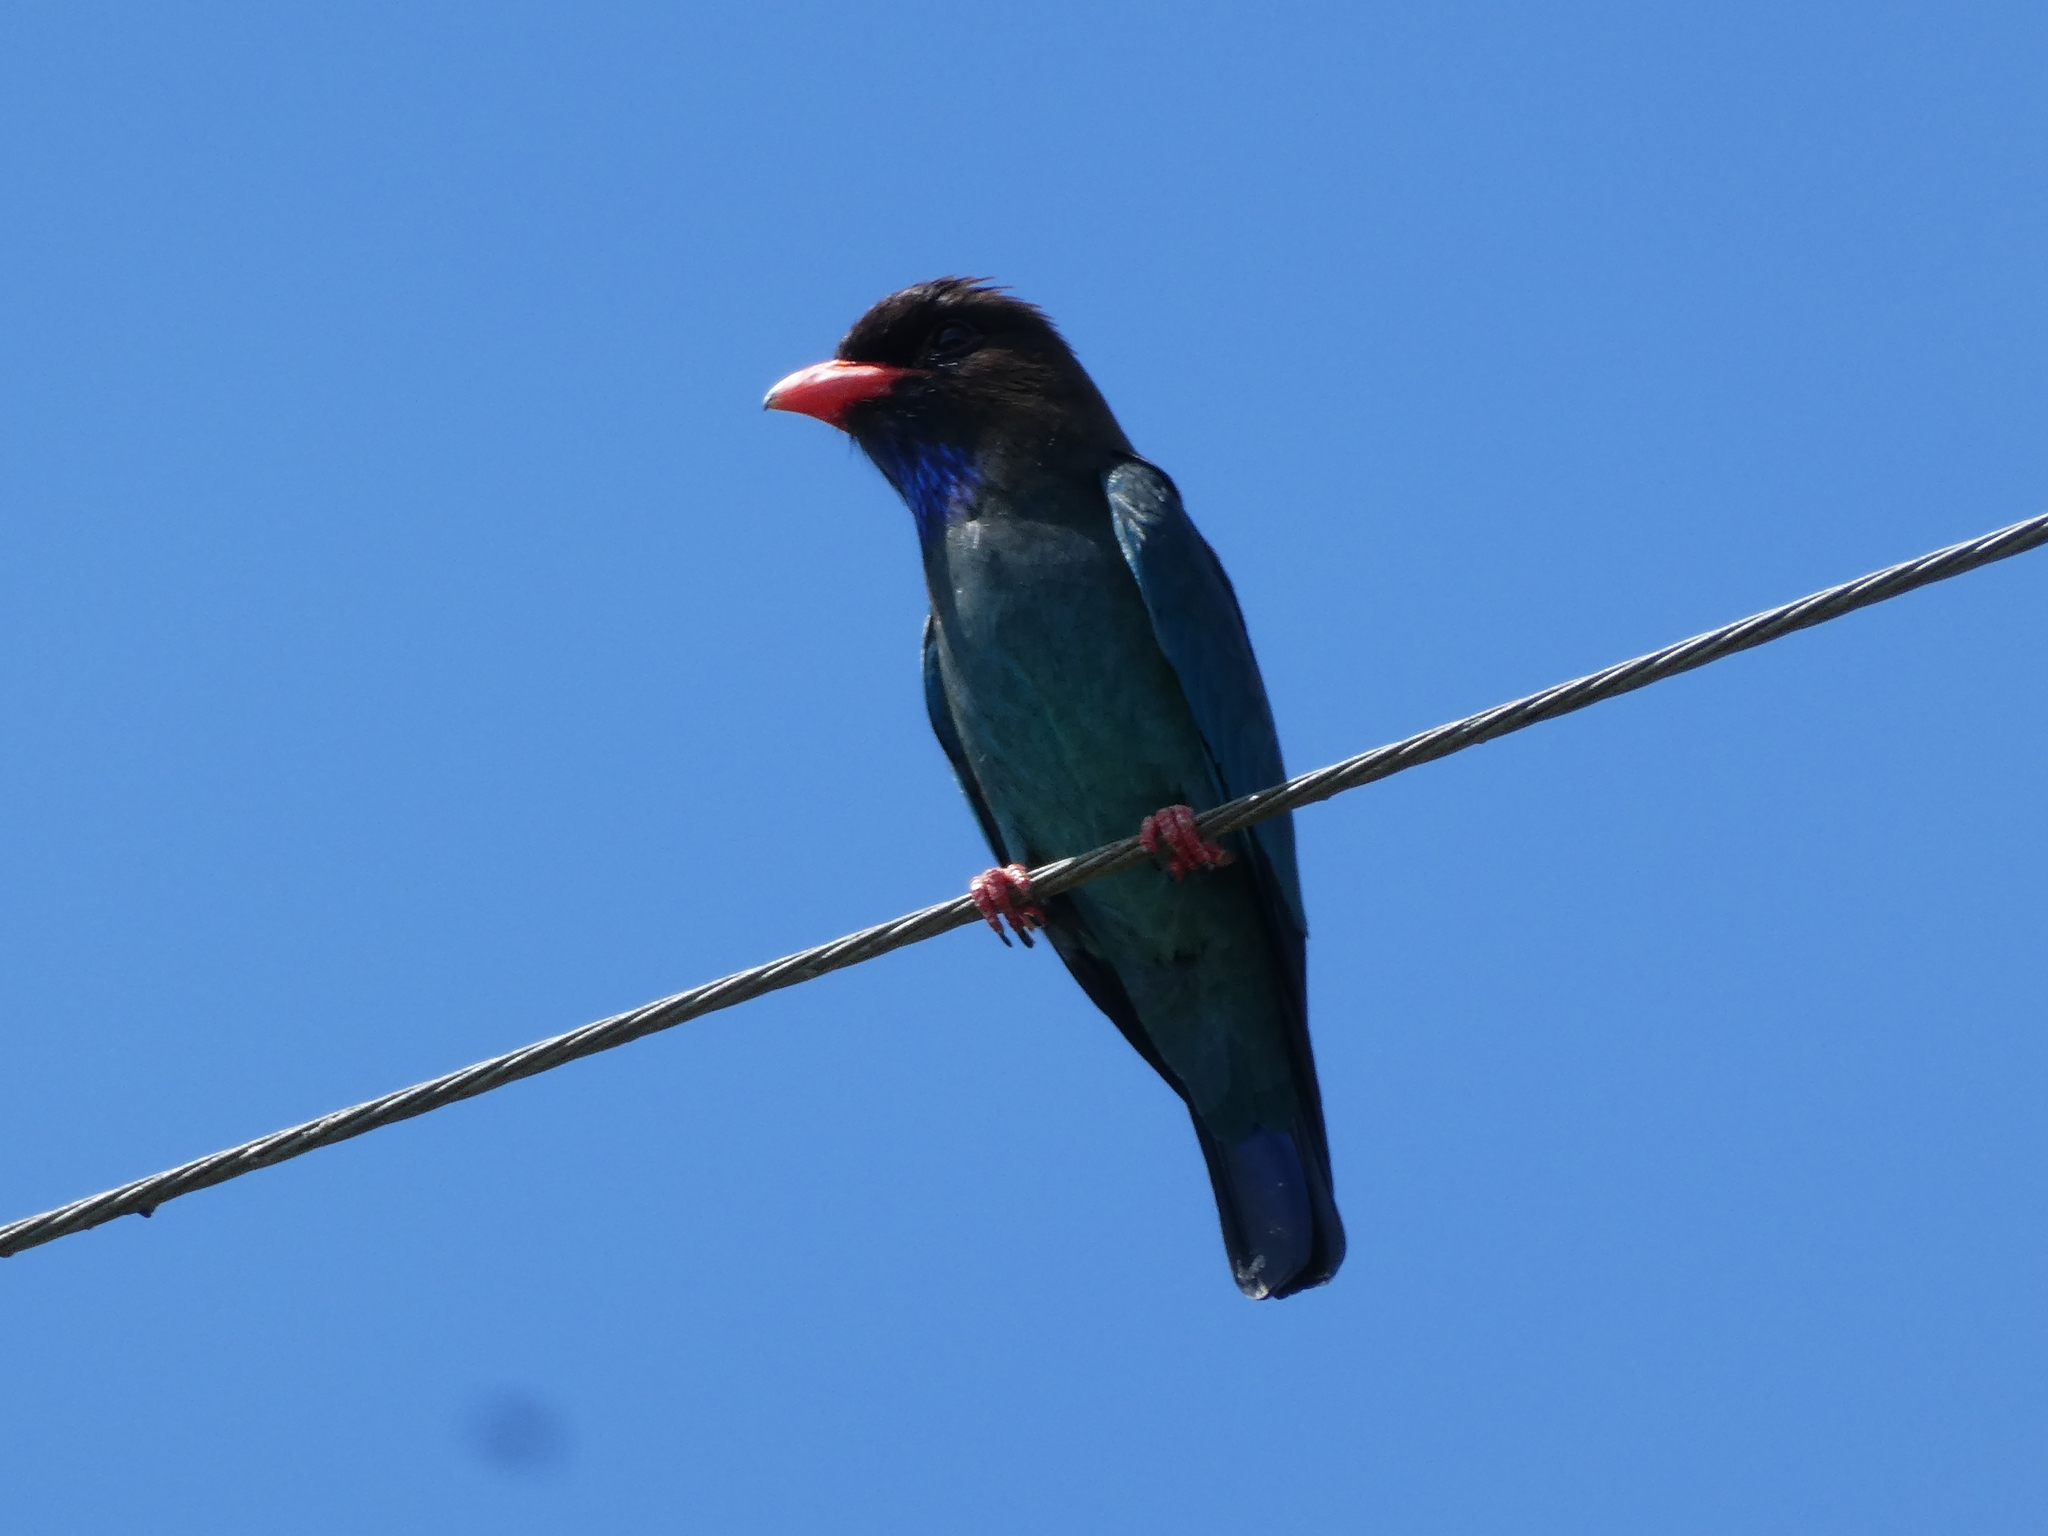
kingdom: Animalia
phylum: Chordata
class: Aves
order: Coraciiformes
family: Coraciidae
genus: Eurystomus
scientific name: Eurystomus orientalis
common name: Oriental dollarbird
